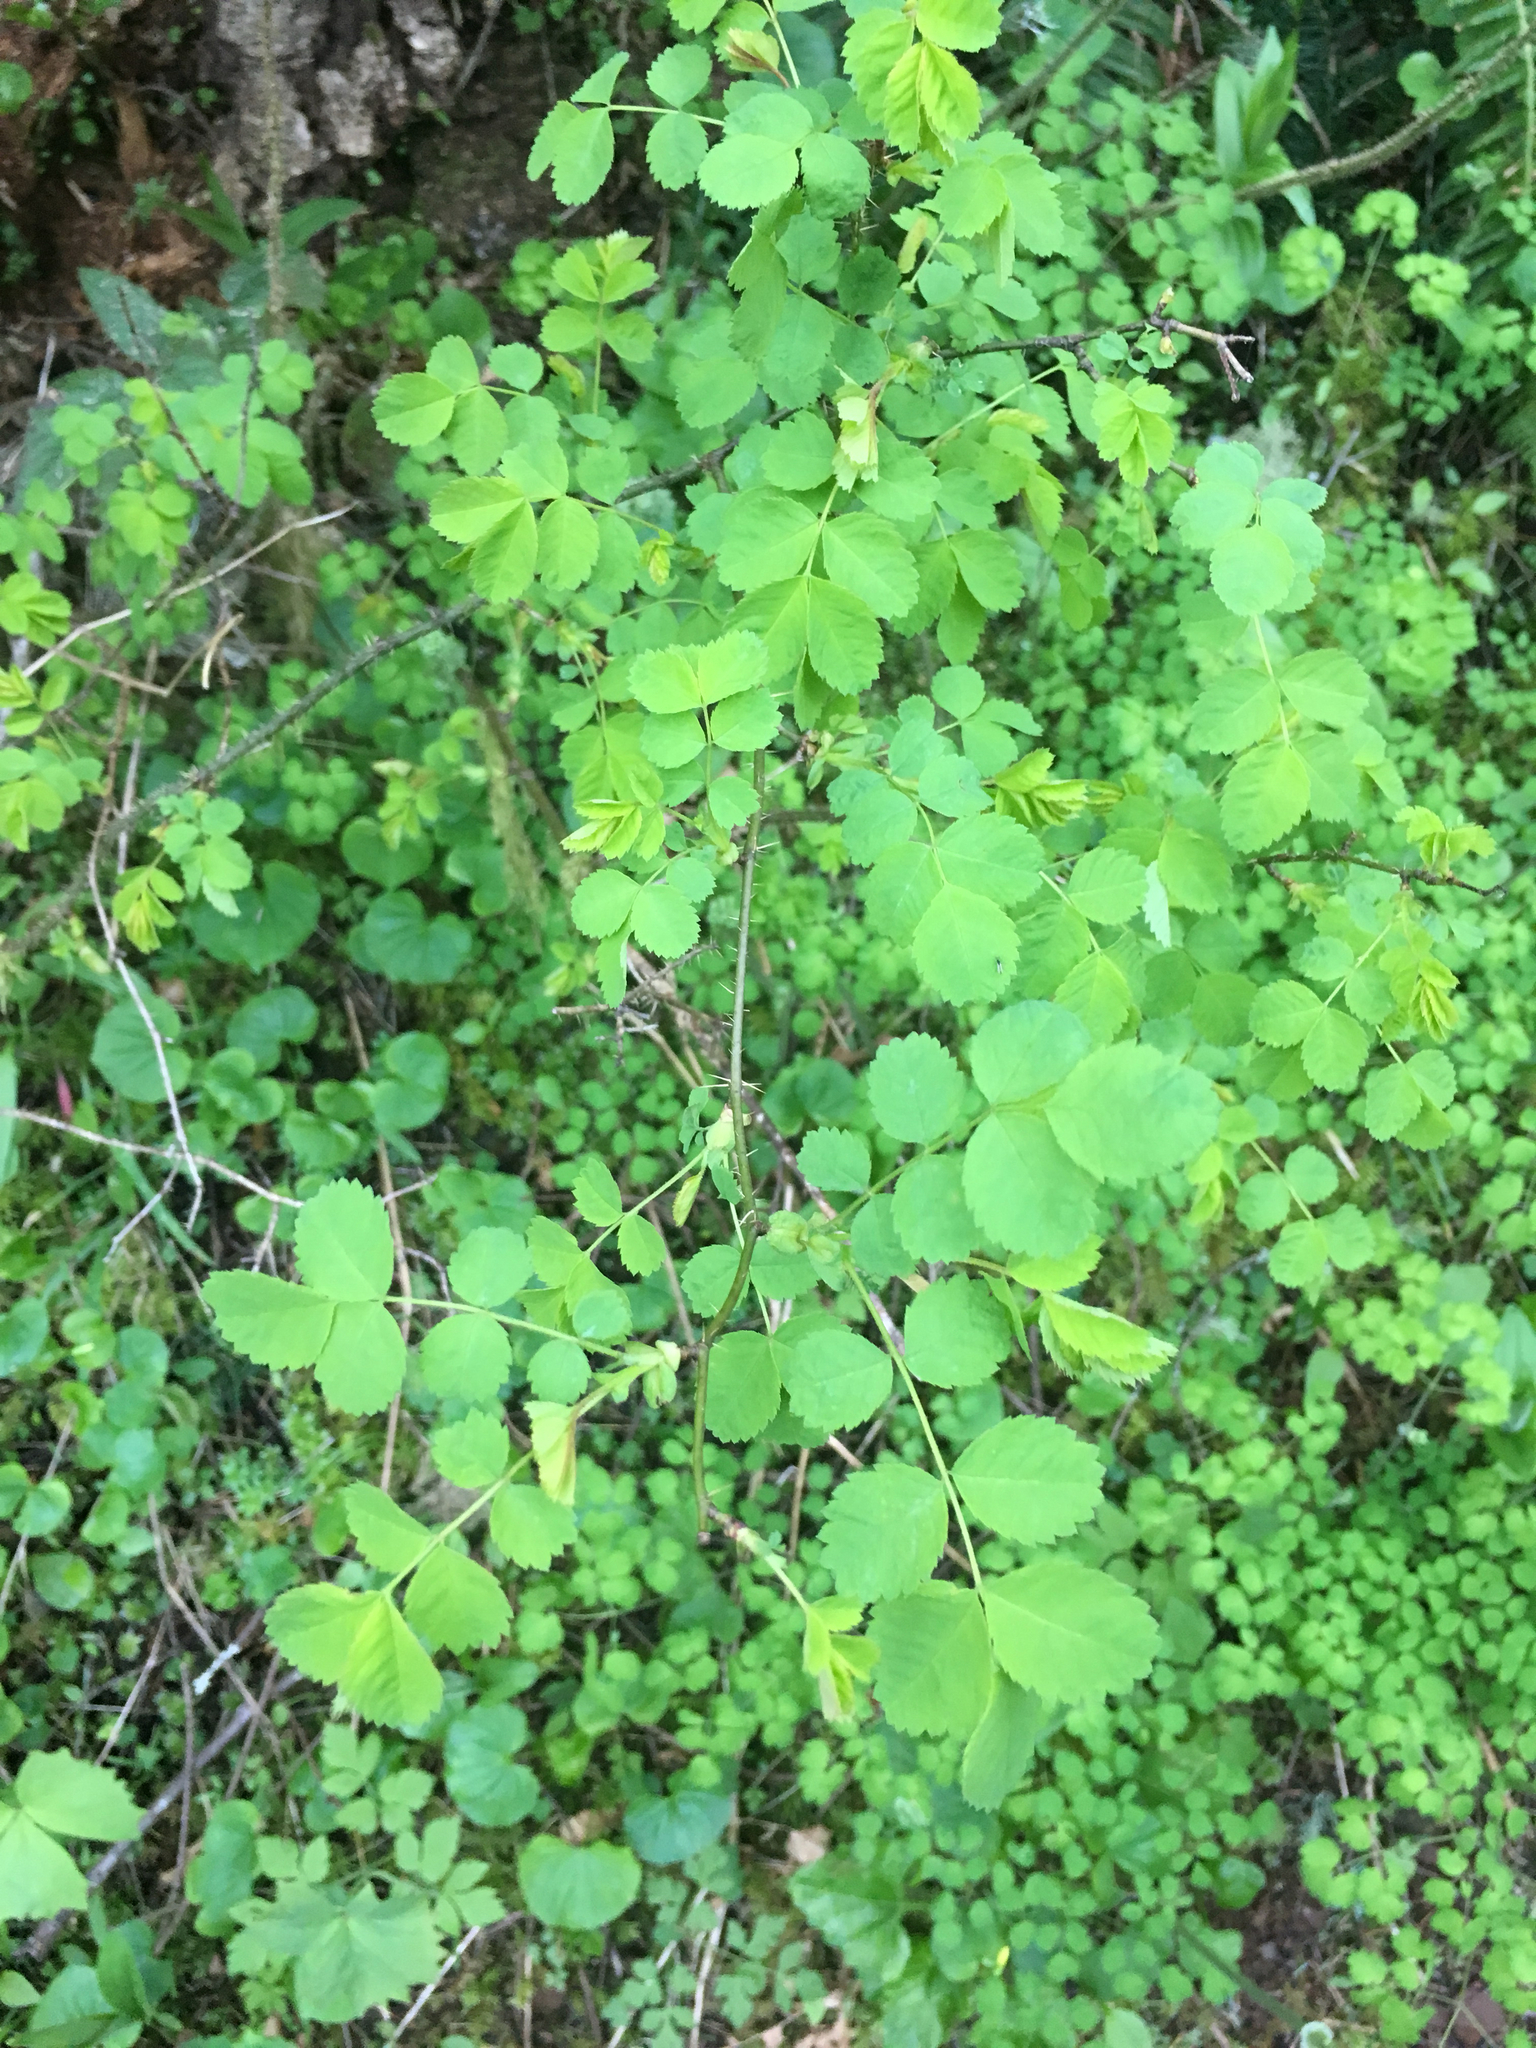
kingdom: Plantae
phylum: Tracheophyta
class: Magnoliopsida
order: Rosales
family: Rosaceae
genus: Rosa
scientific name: Rosa gymnocarpa
